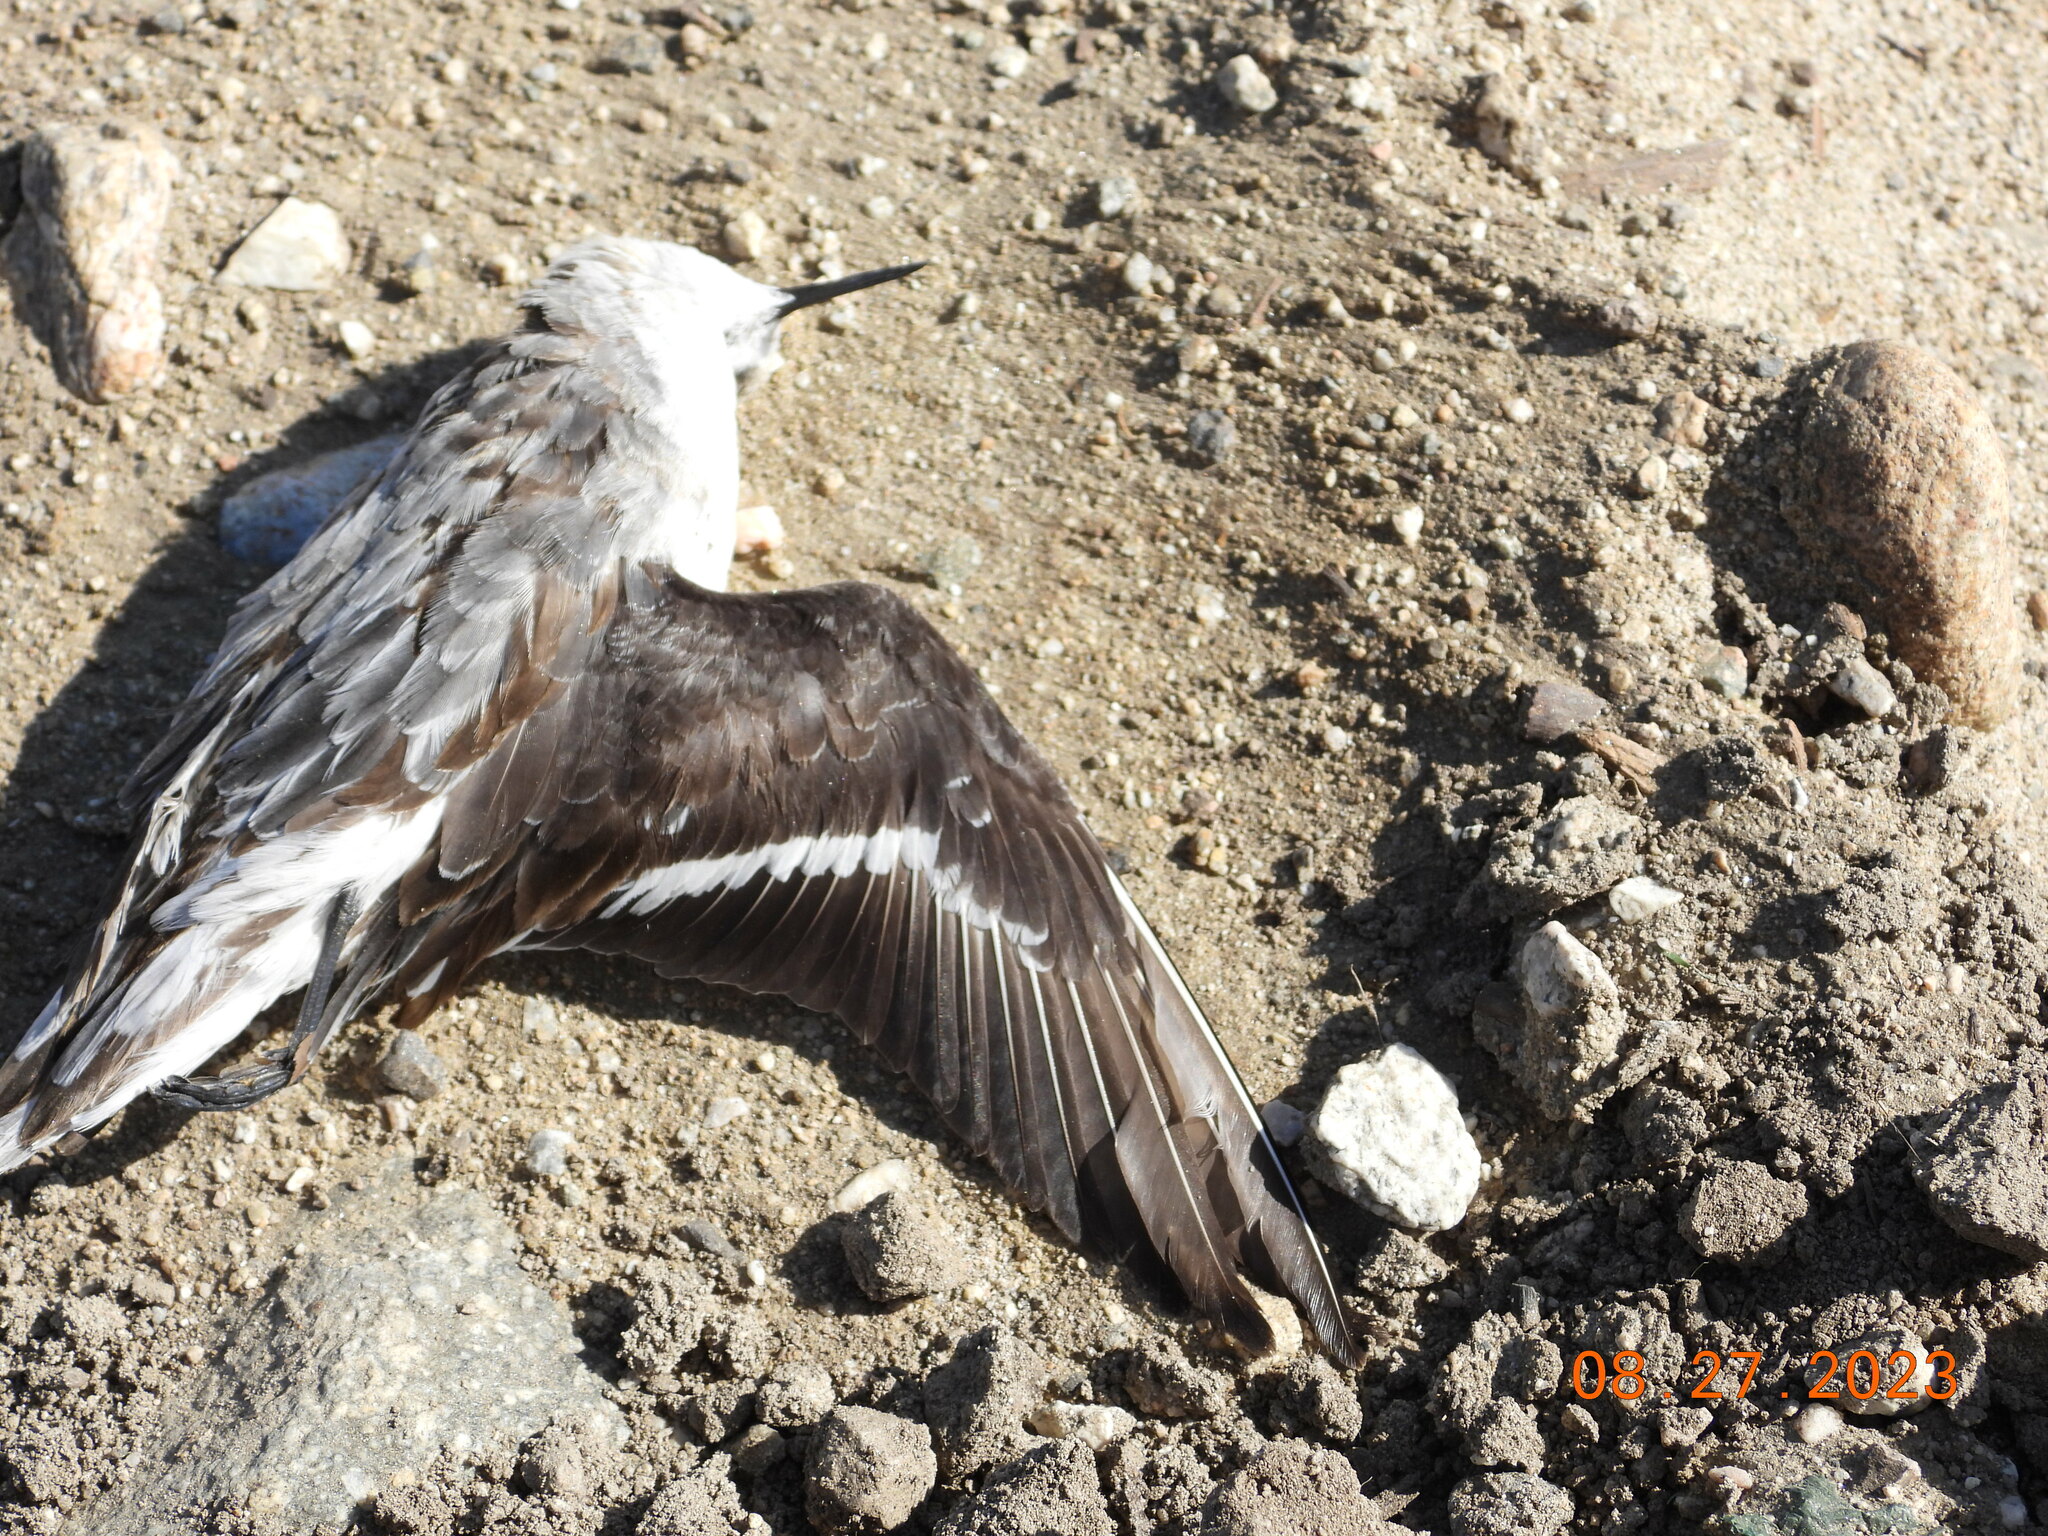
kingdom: Animalia
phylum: Chordata
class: Aves
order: Charadriiformes
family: Scolopacidae
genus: Phalaropus
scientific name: Phalaropus lobatus
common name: Red-necked phalarope
